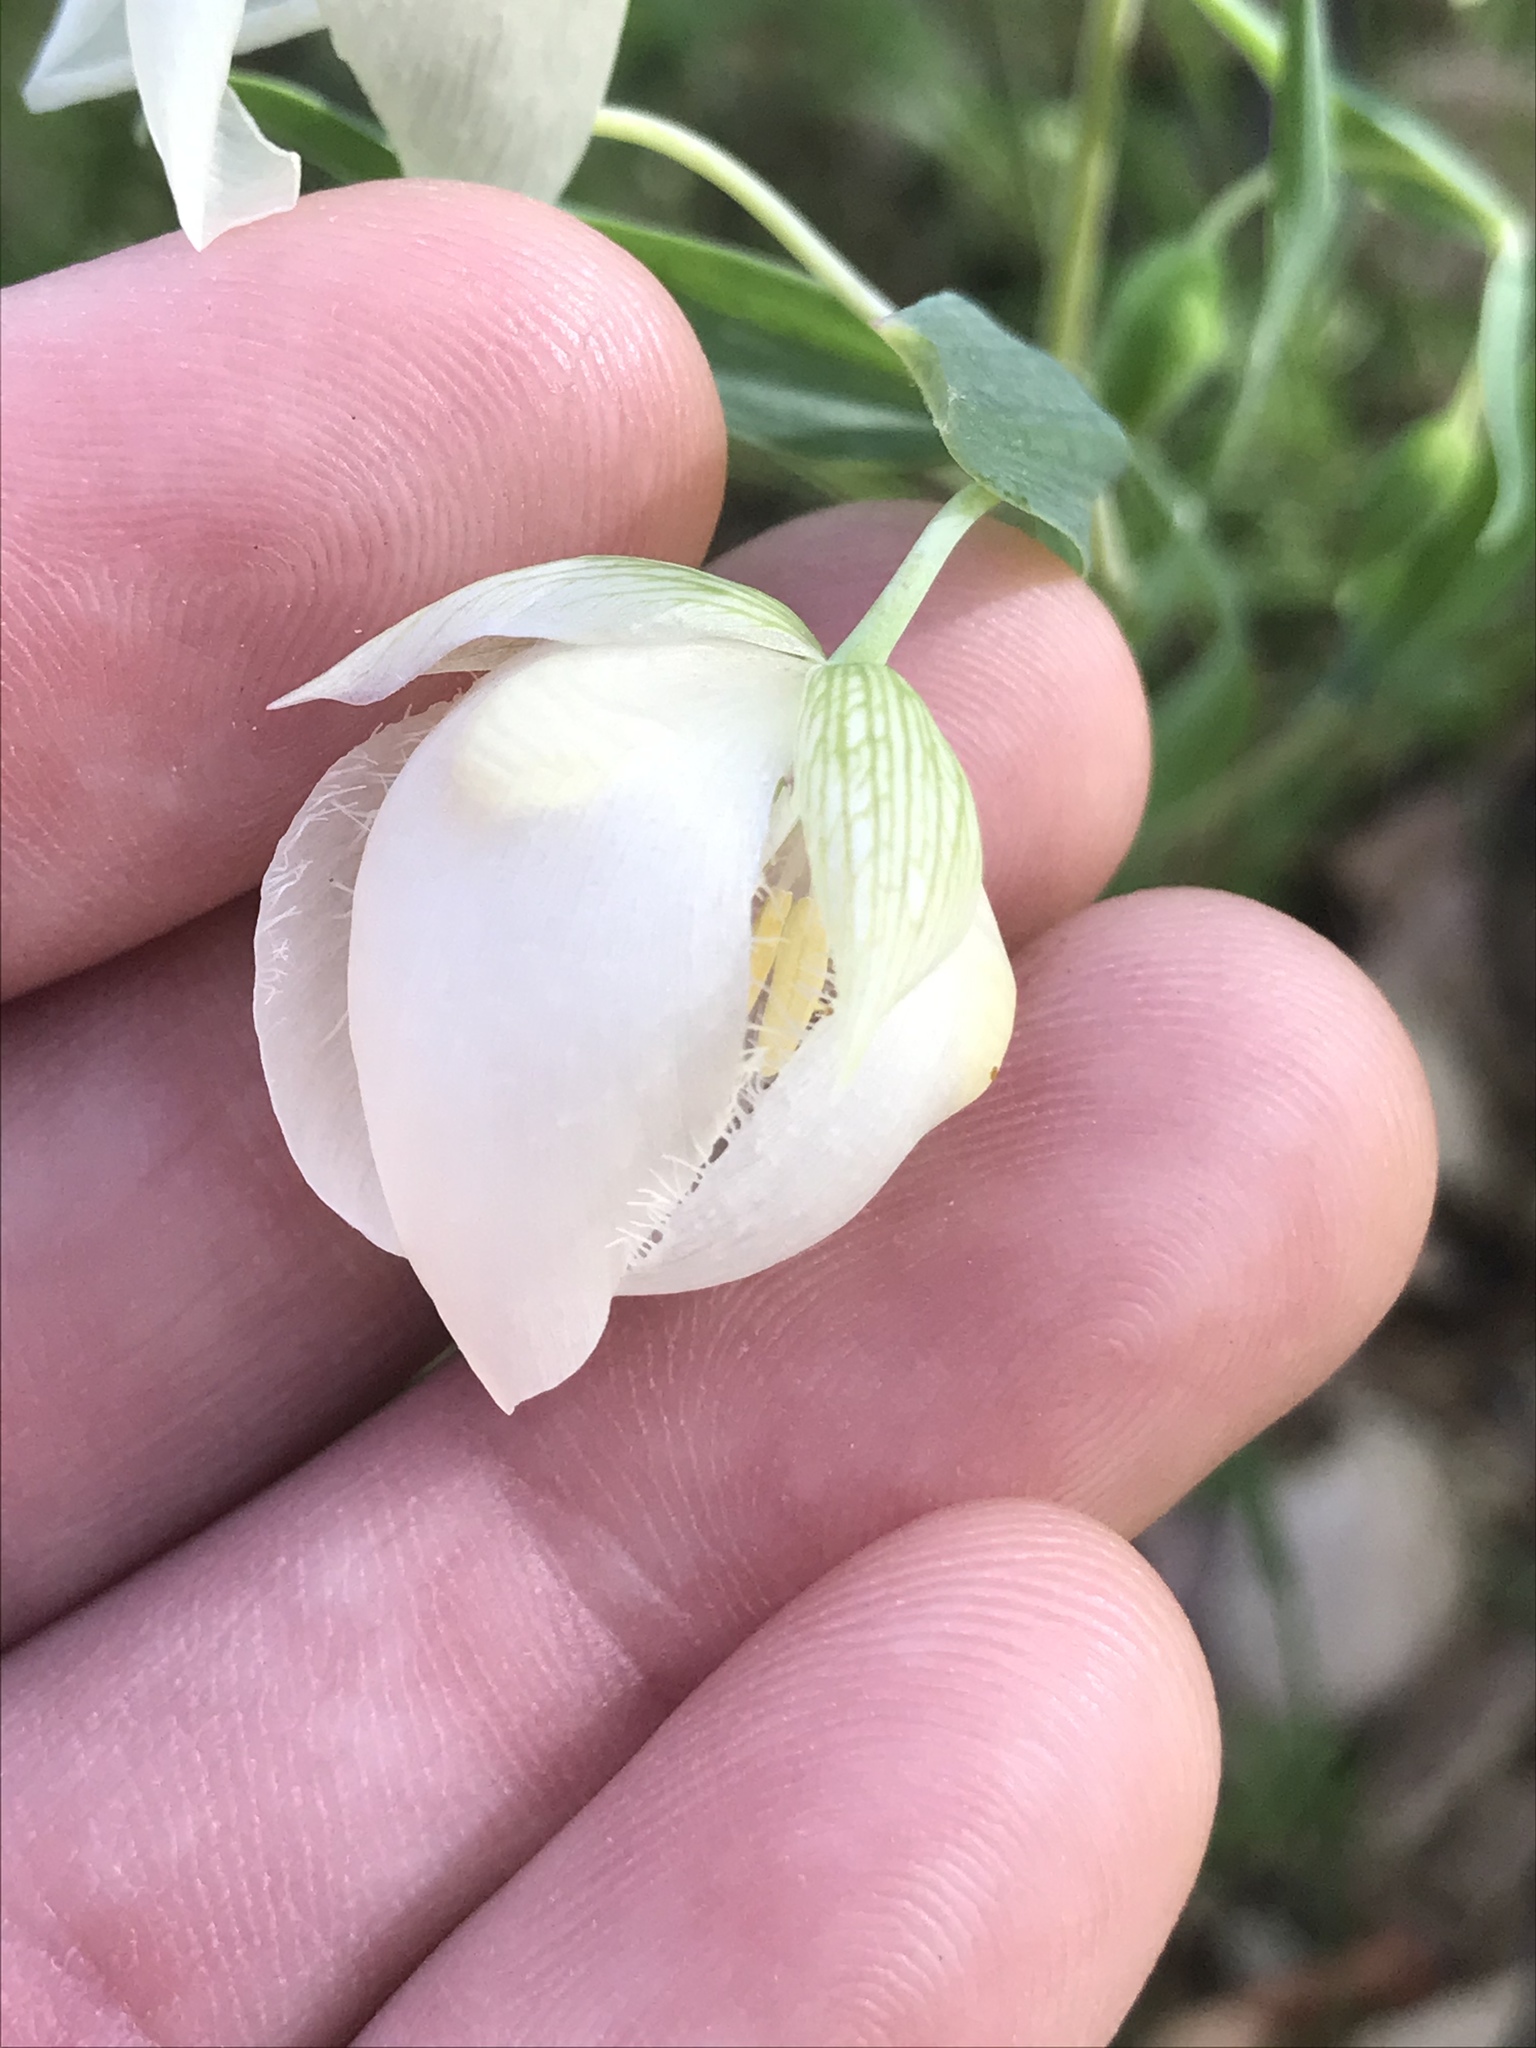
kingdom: Plantae
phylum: Tracheophyta
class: Liliopsida
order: Liliales
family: Liliaceae
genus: Calochortus
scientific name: Calochortus albus
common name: Fairy-lantern
